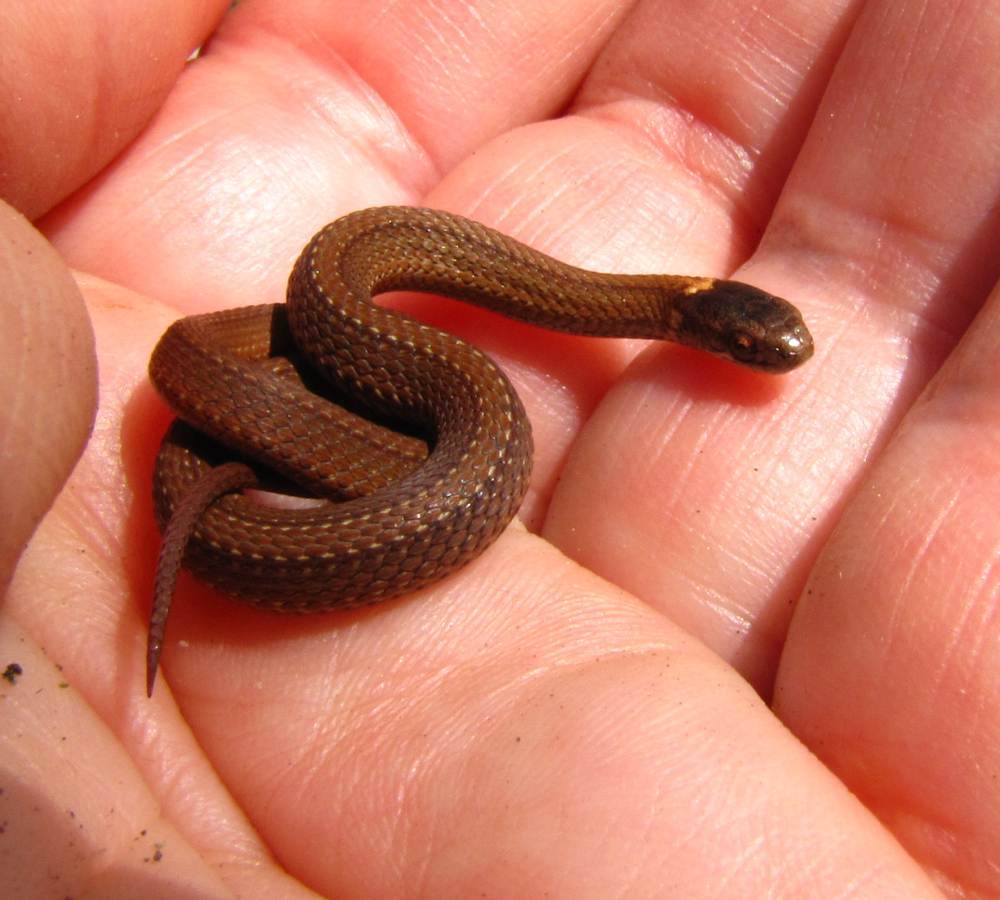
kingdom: Animalia
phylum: Chordata
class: Squamata
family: Colubridae
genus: Storeria
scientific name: Storeria occipitomaculata
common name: Redbelly snake
